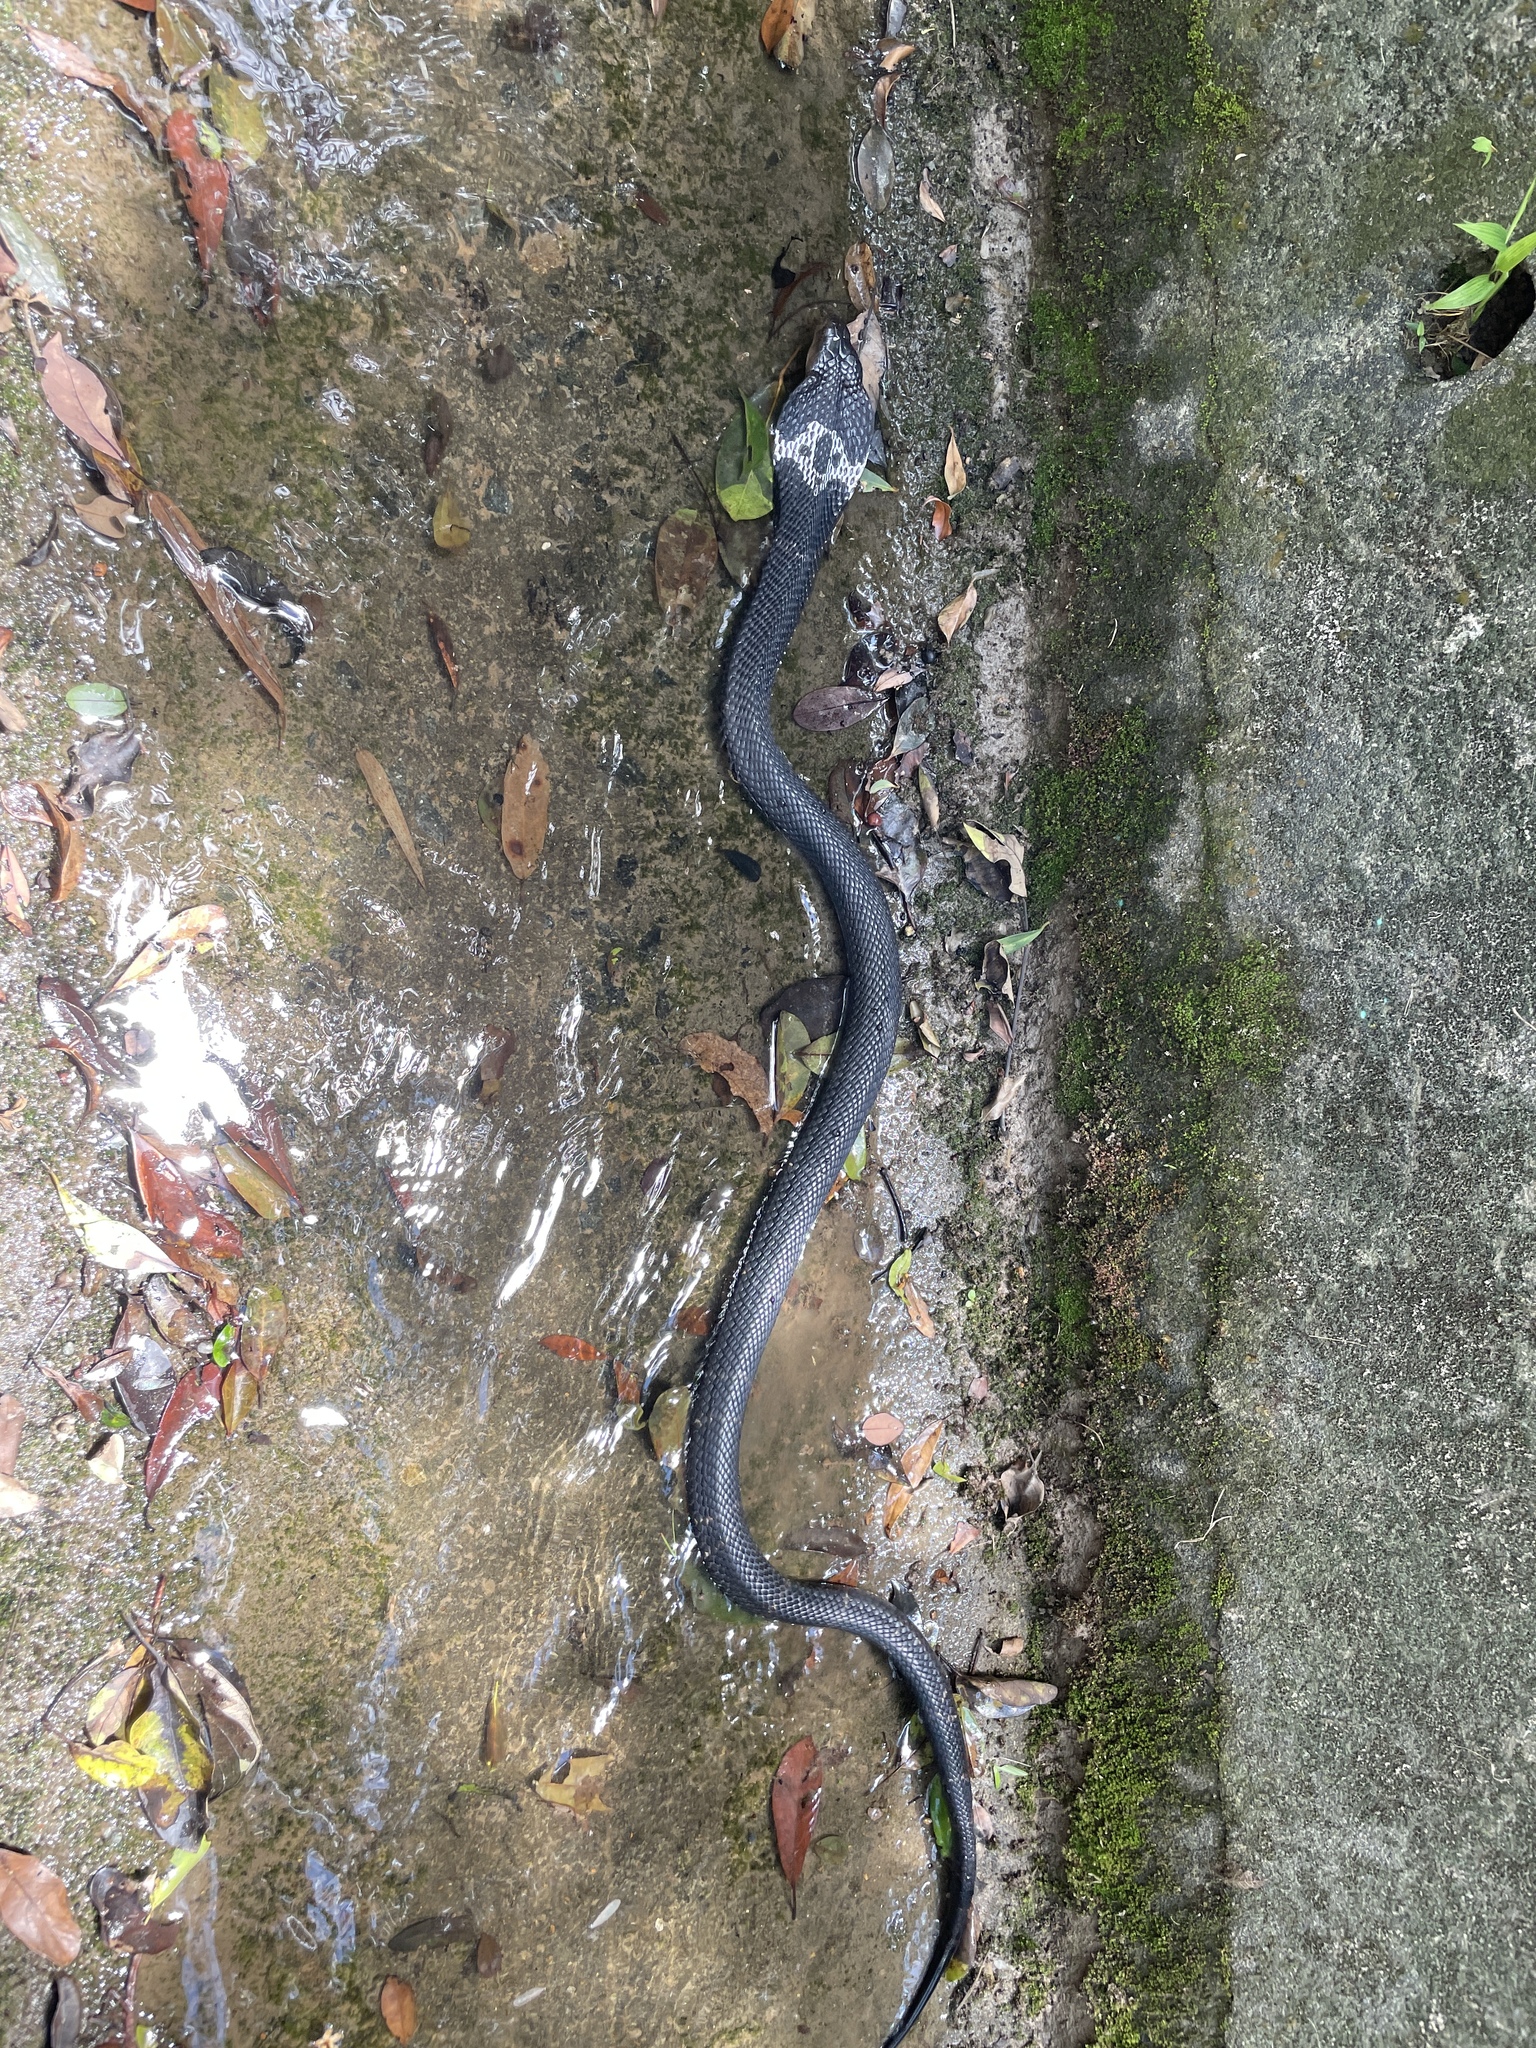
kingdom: Animalia
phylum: Chordata
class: Squamata
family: Elapidae
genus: Naja
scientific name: Naja atra
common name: Chinese cobra
